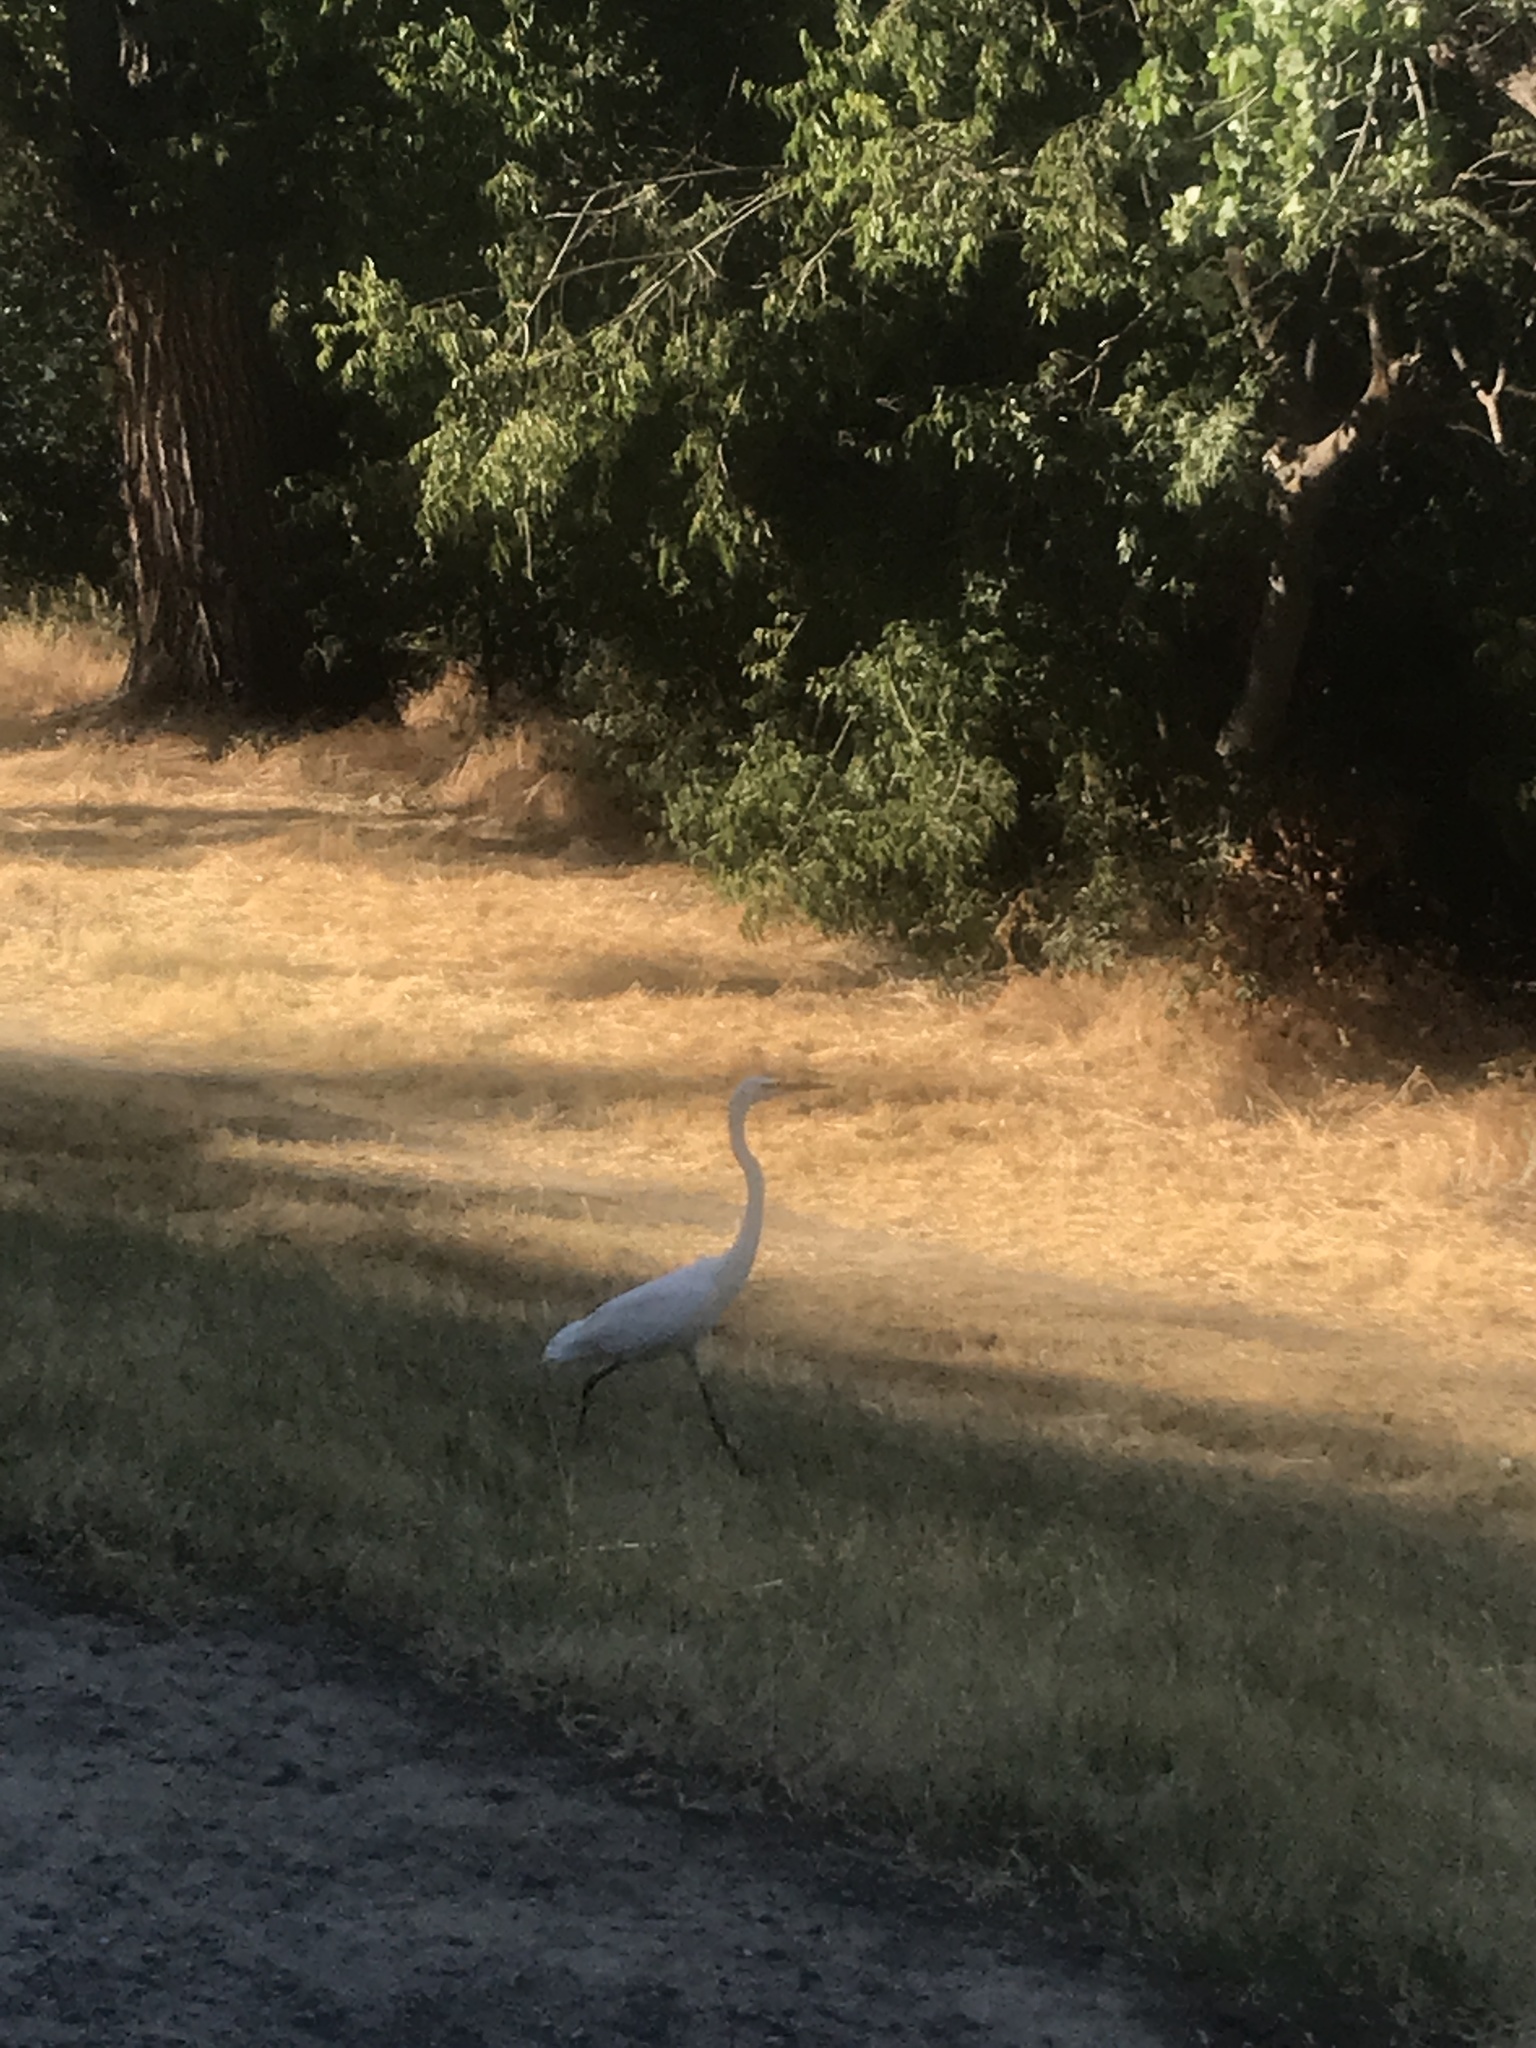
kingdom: Animalia
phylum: Chordata
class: Aves
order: Pelecaniformes
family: Ardeidae
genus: Ardea
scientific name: Ardea alba
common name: Great egret
